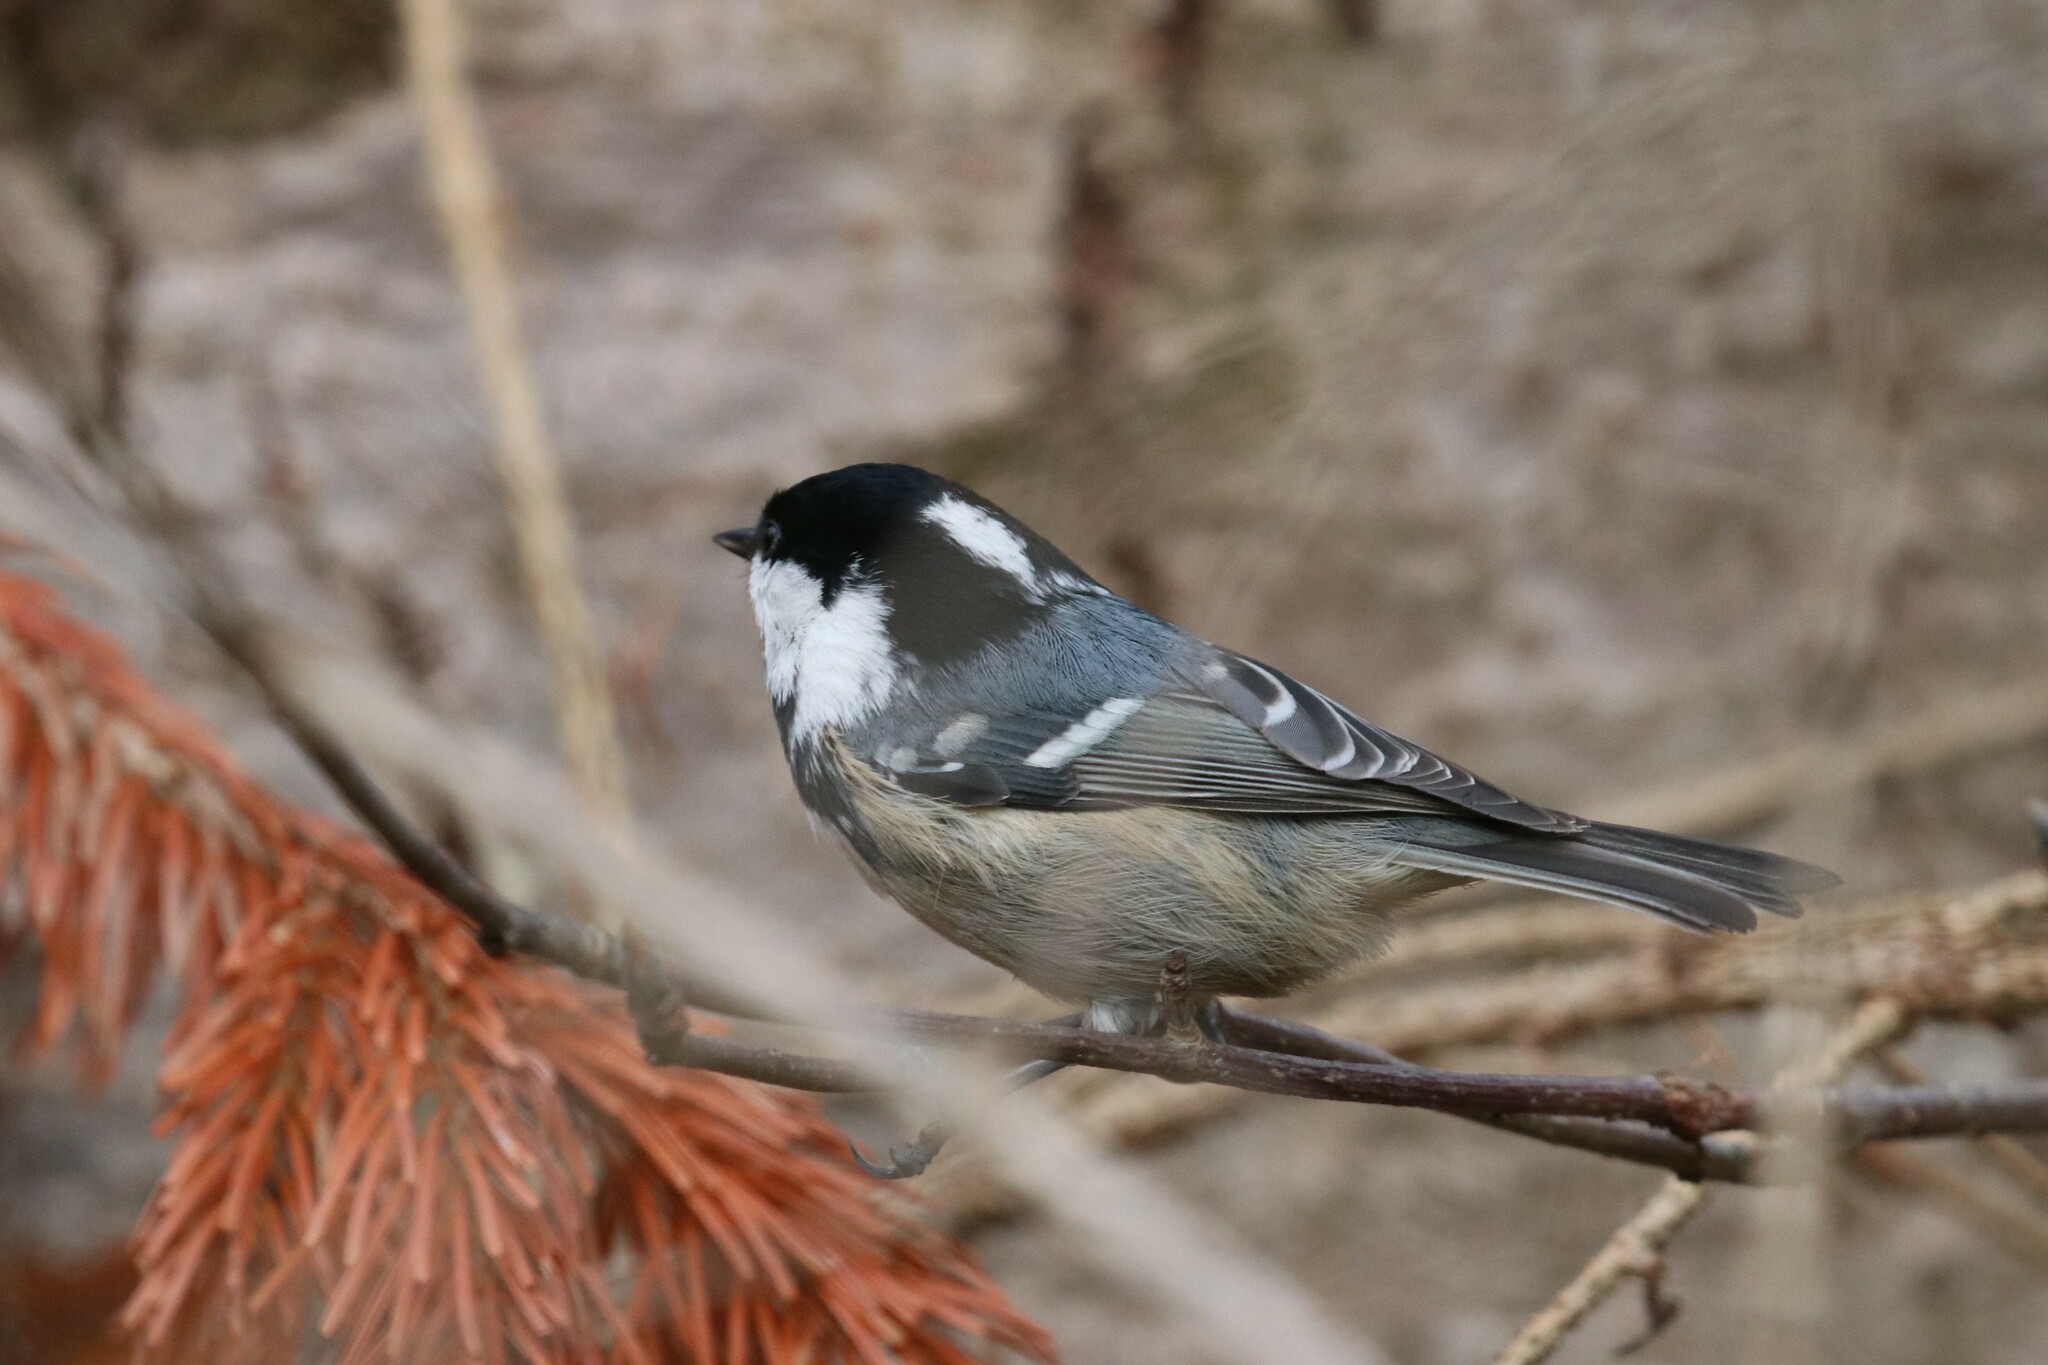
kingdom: Animalia
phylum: Chordata
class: Aves
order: Passeriformes
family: Paridae
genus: Periparus
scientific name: Periparus ater
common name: Coal tit
